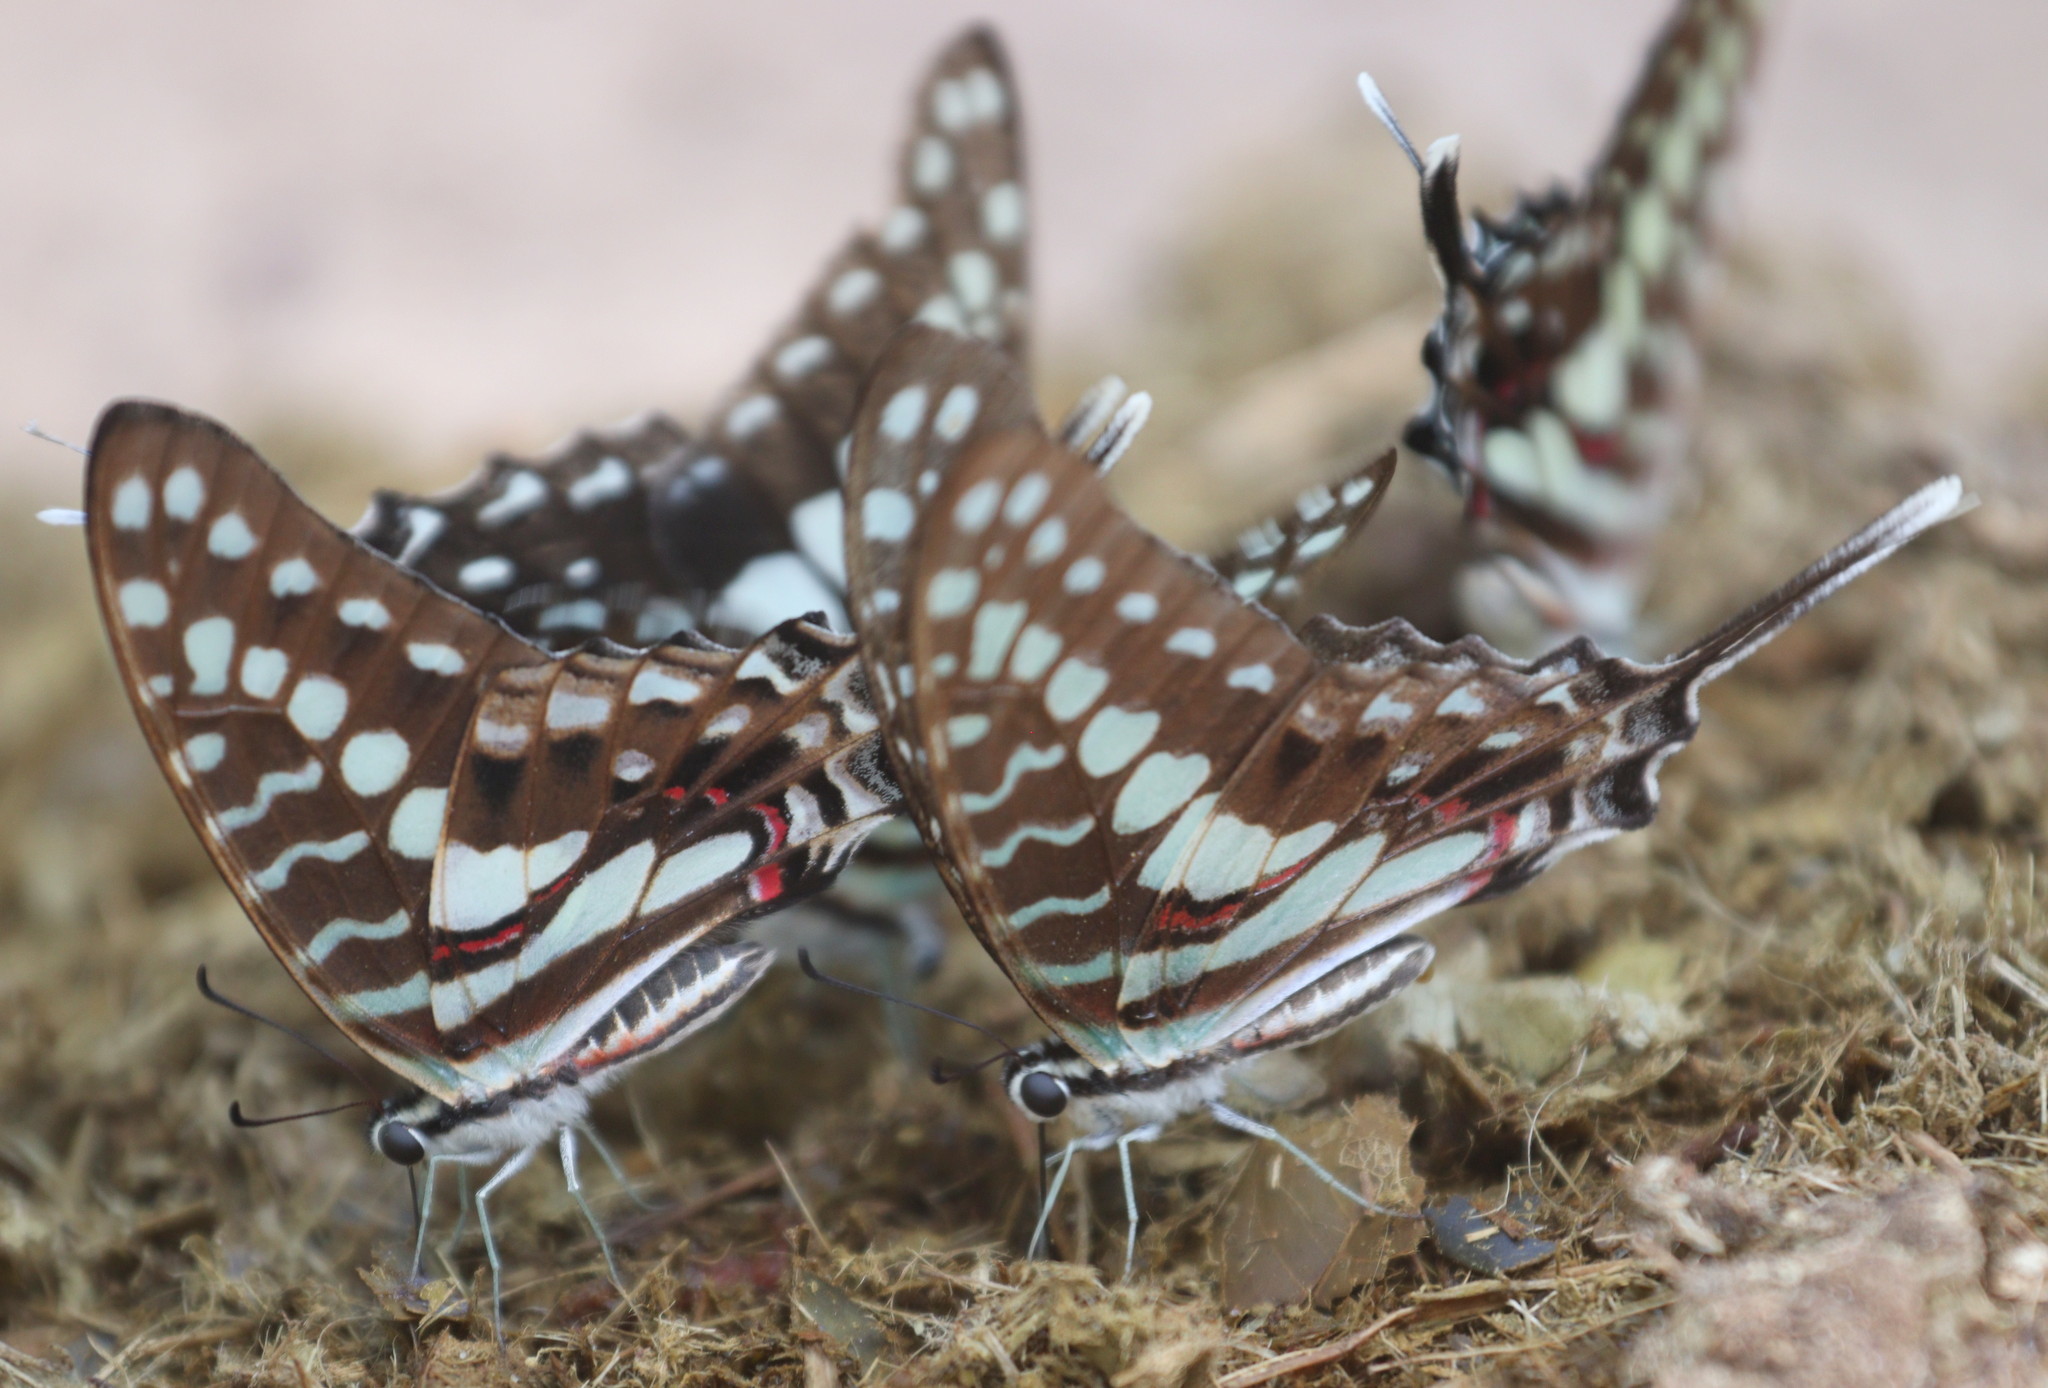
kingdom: Animalia
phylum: Arthropoda
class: Insecta
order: Lepidoptera
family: Papilionidae
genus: Graphium
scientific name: Graphium antheus
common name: Large striped swordtail
